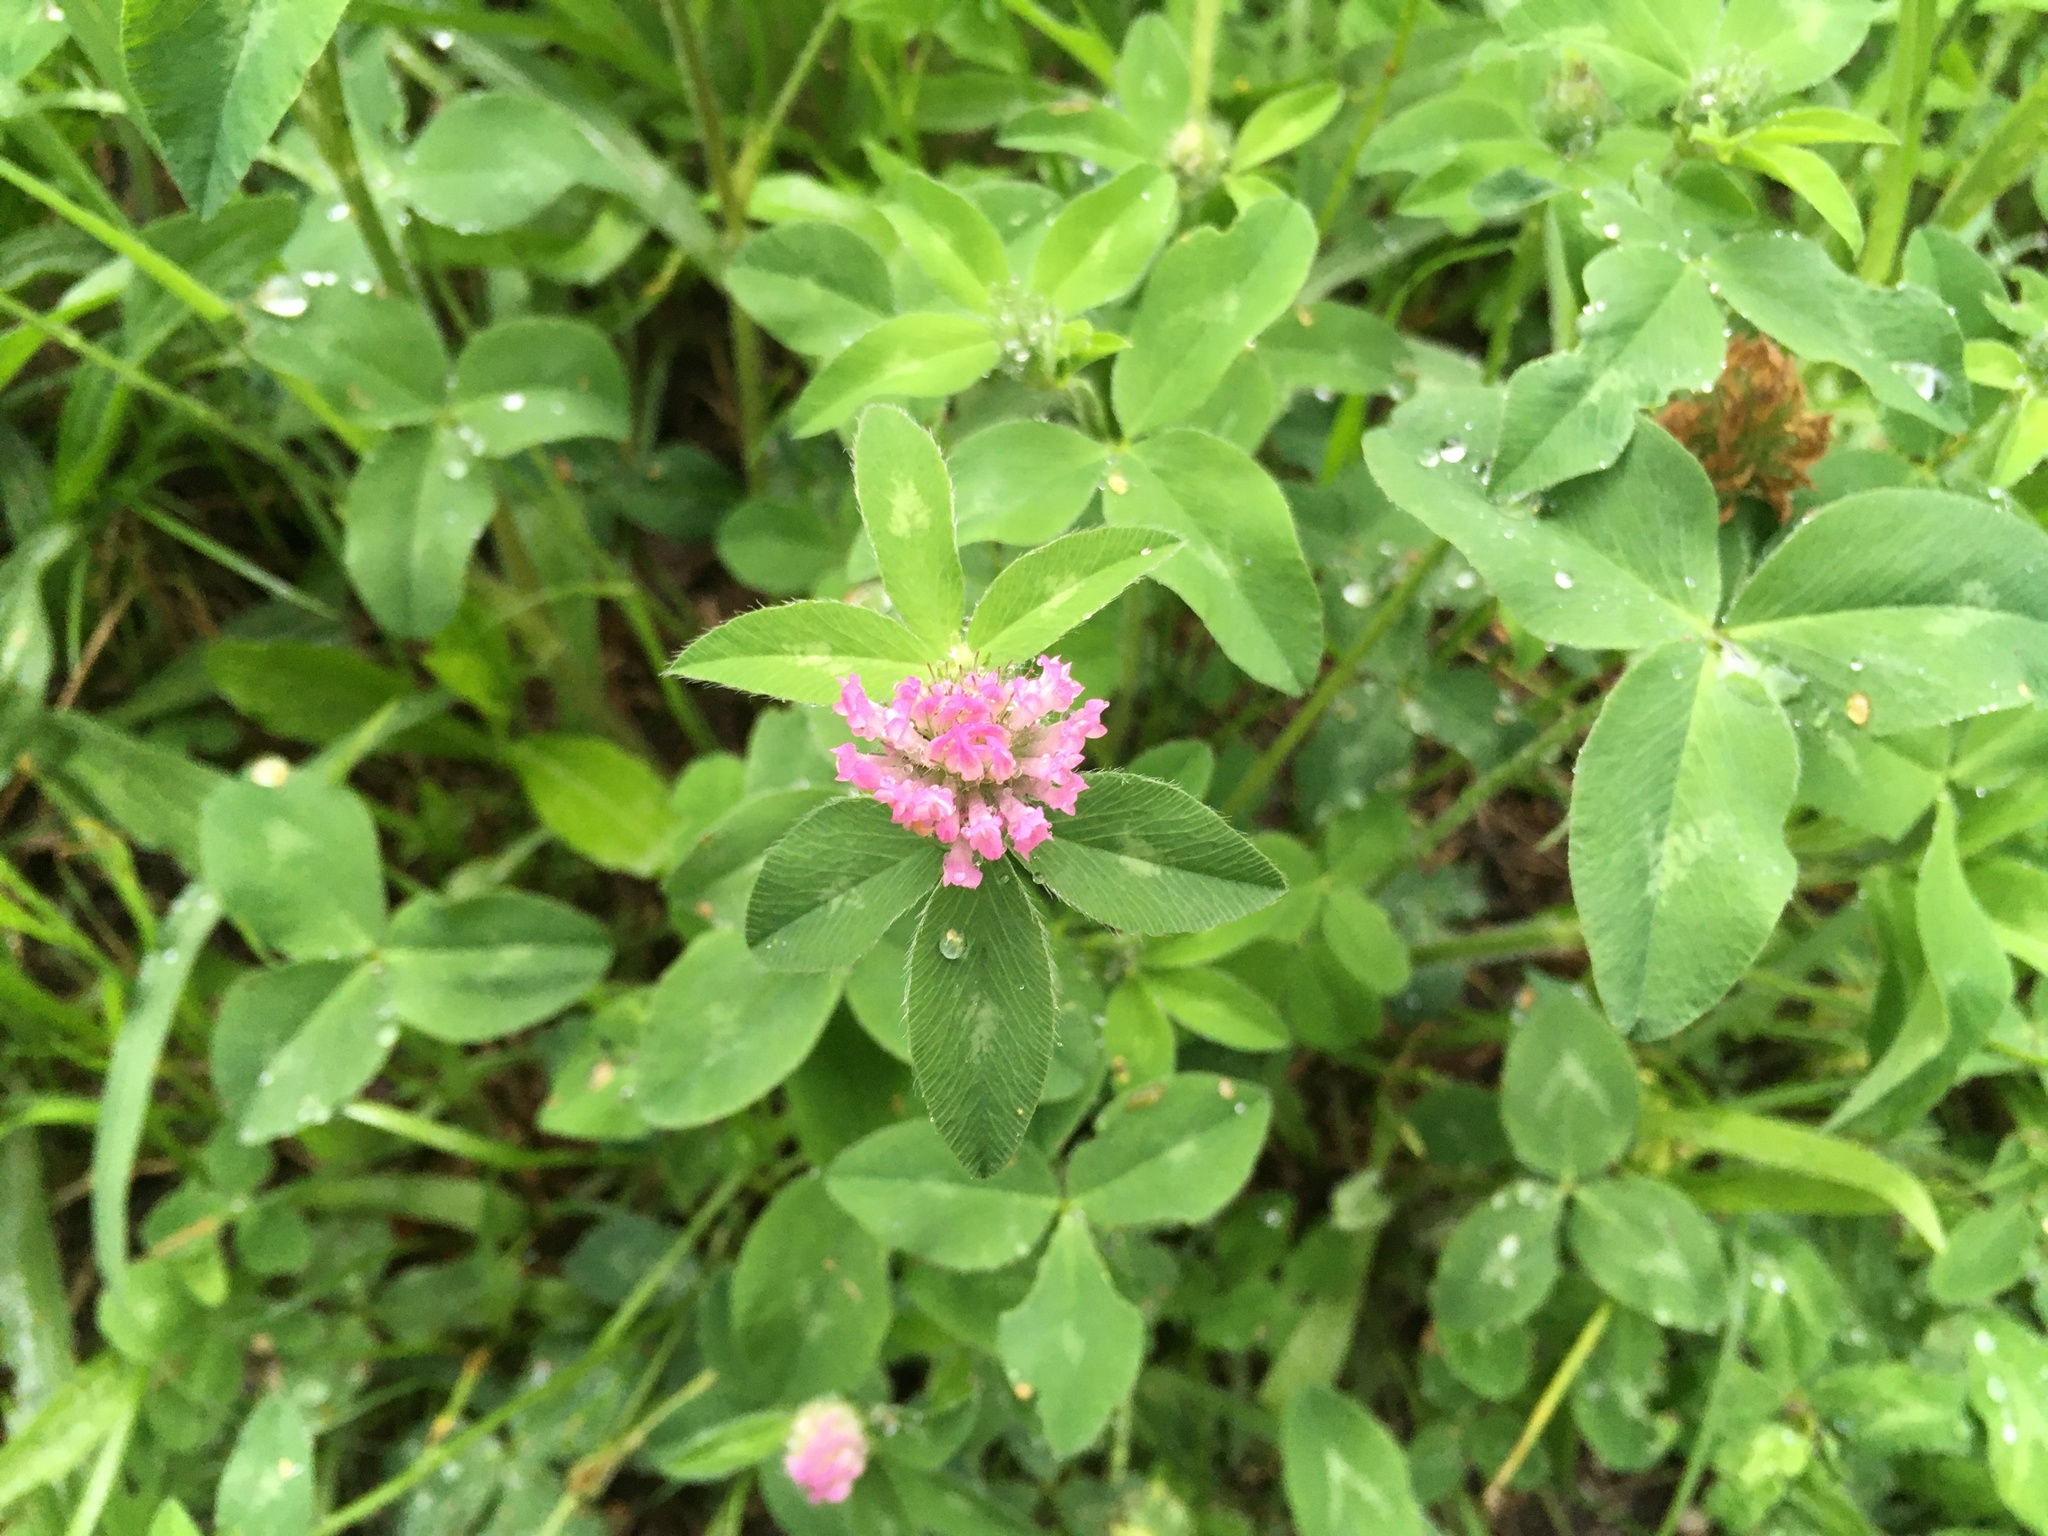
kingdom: Plantae
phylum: Tracheophyta
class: Magnoliopsida
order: Fabales
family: Fabaceae
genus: Trifolium
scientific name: Trifolium pratense
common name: Red clover
